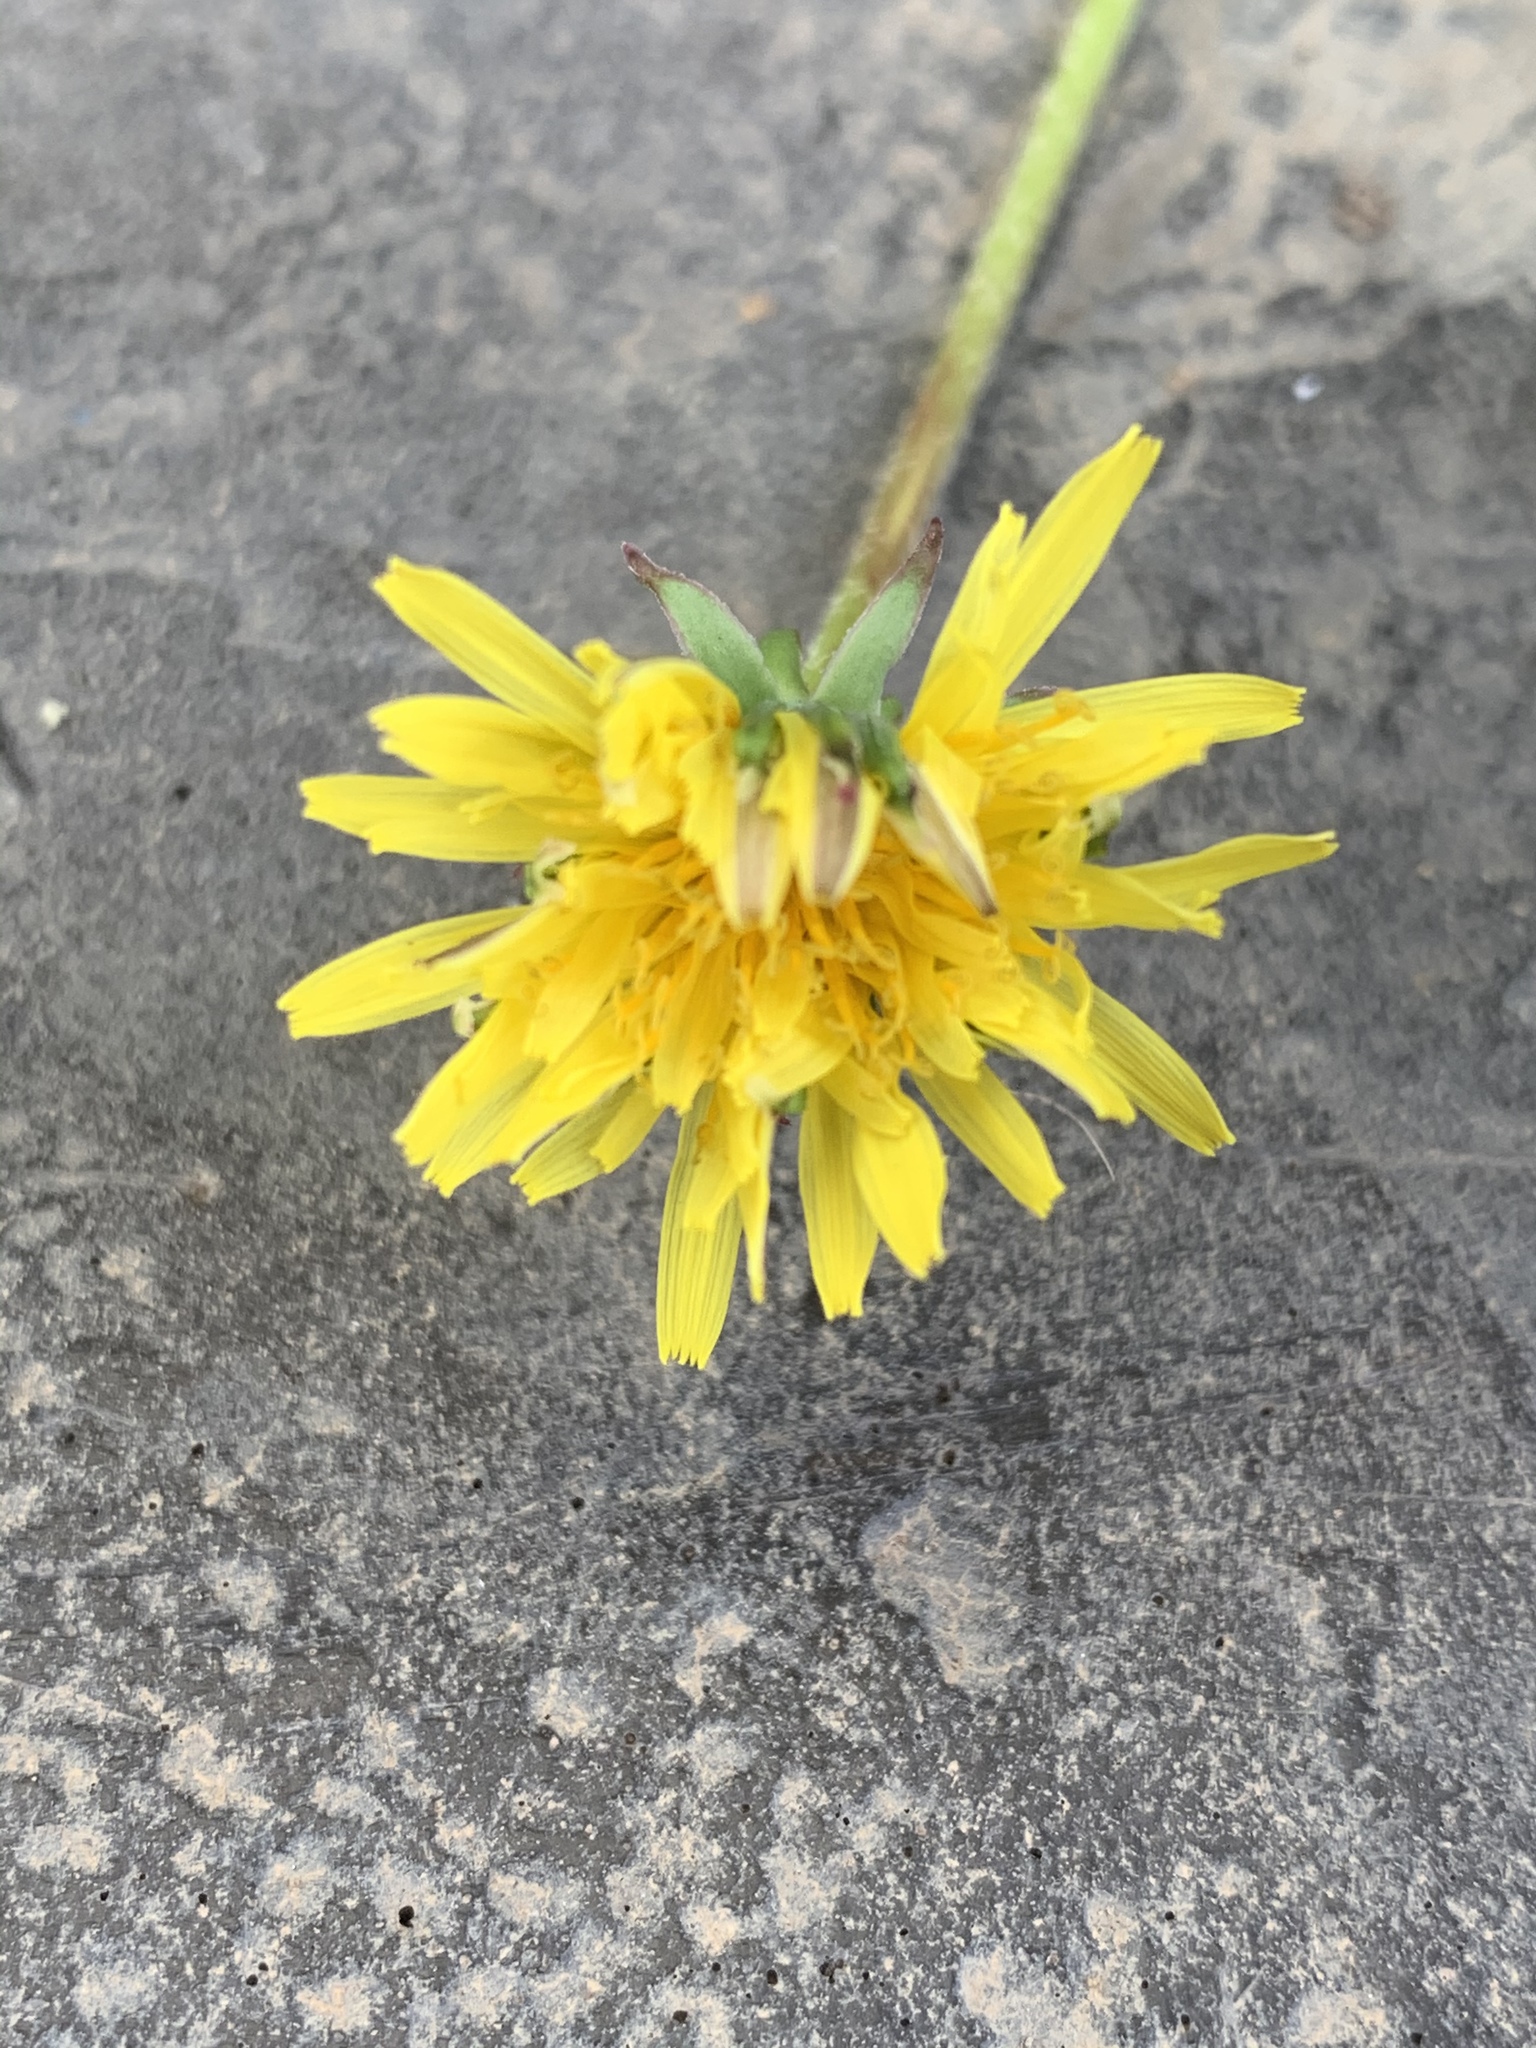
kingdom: Plantae
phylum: Tracheophyta
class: Magnoliopsida
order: Asterales
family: Asteraceae
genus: Taraxacum
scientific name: Taraxacum officinale
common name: Common dandelion
